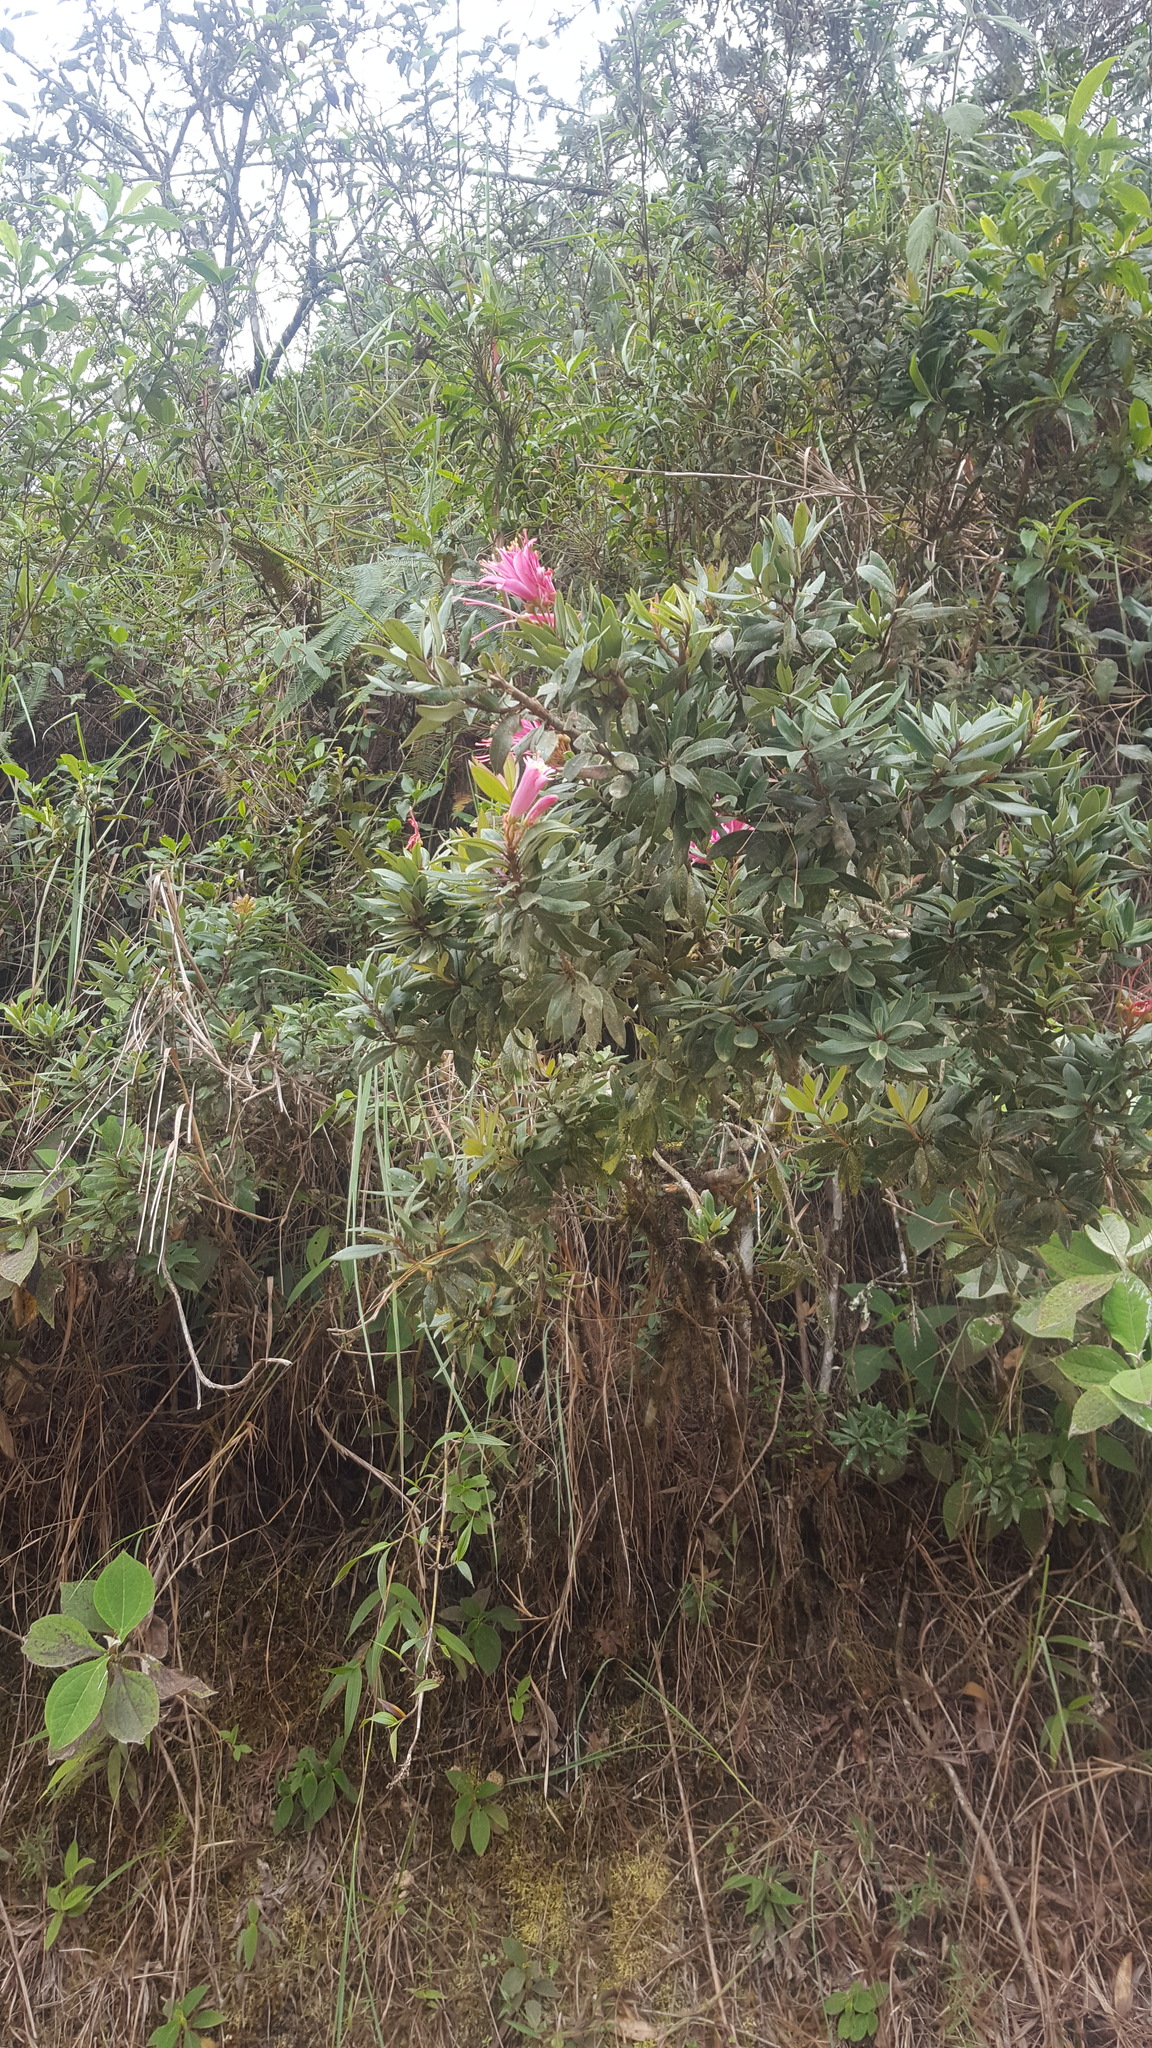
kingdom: Plantae
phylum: Tracheophyta
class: Magnoliopsida
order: Ericales
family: Ericaceae
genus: Bejaria
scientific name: Bejaria mathewsii
